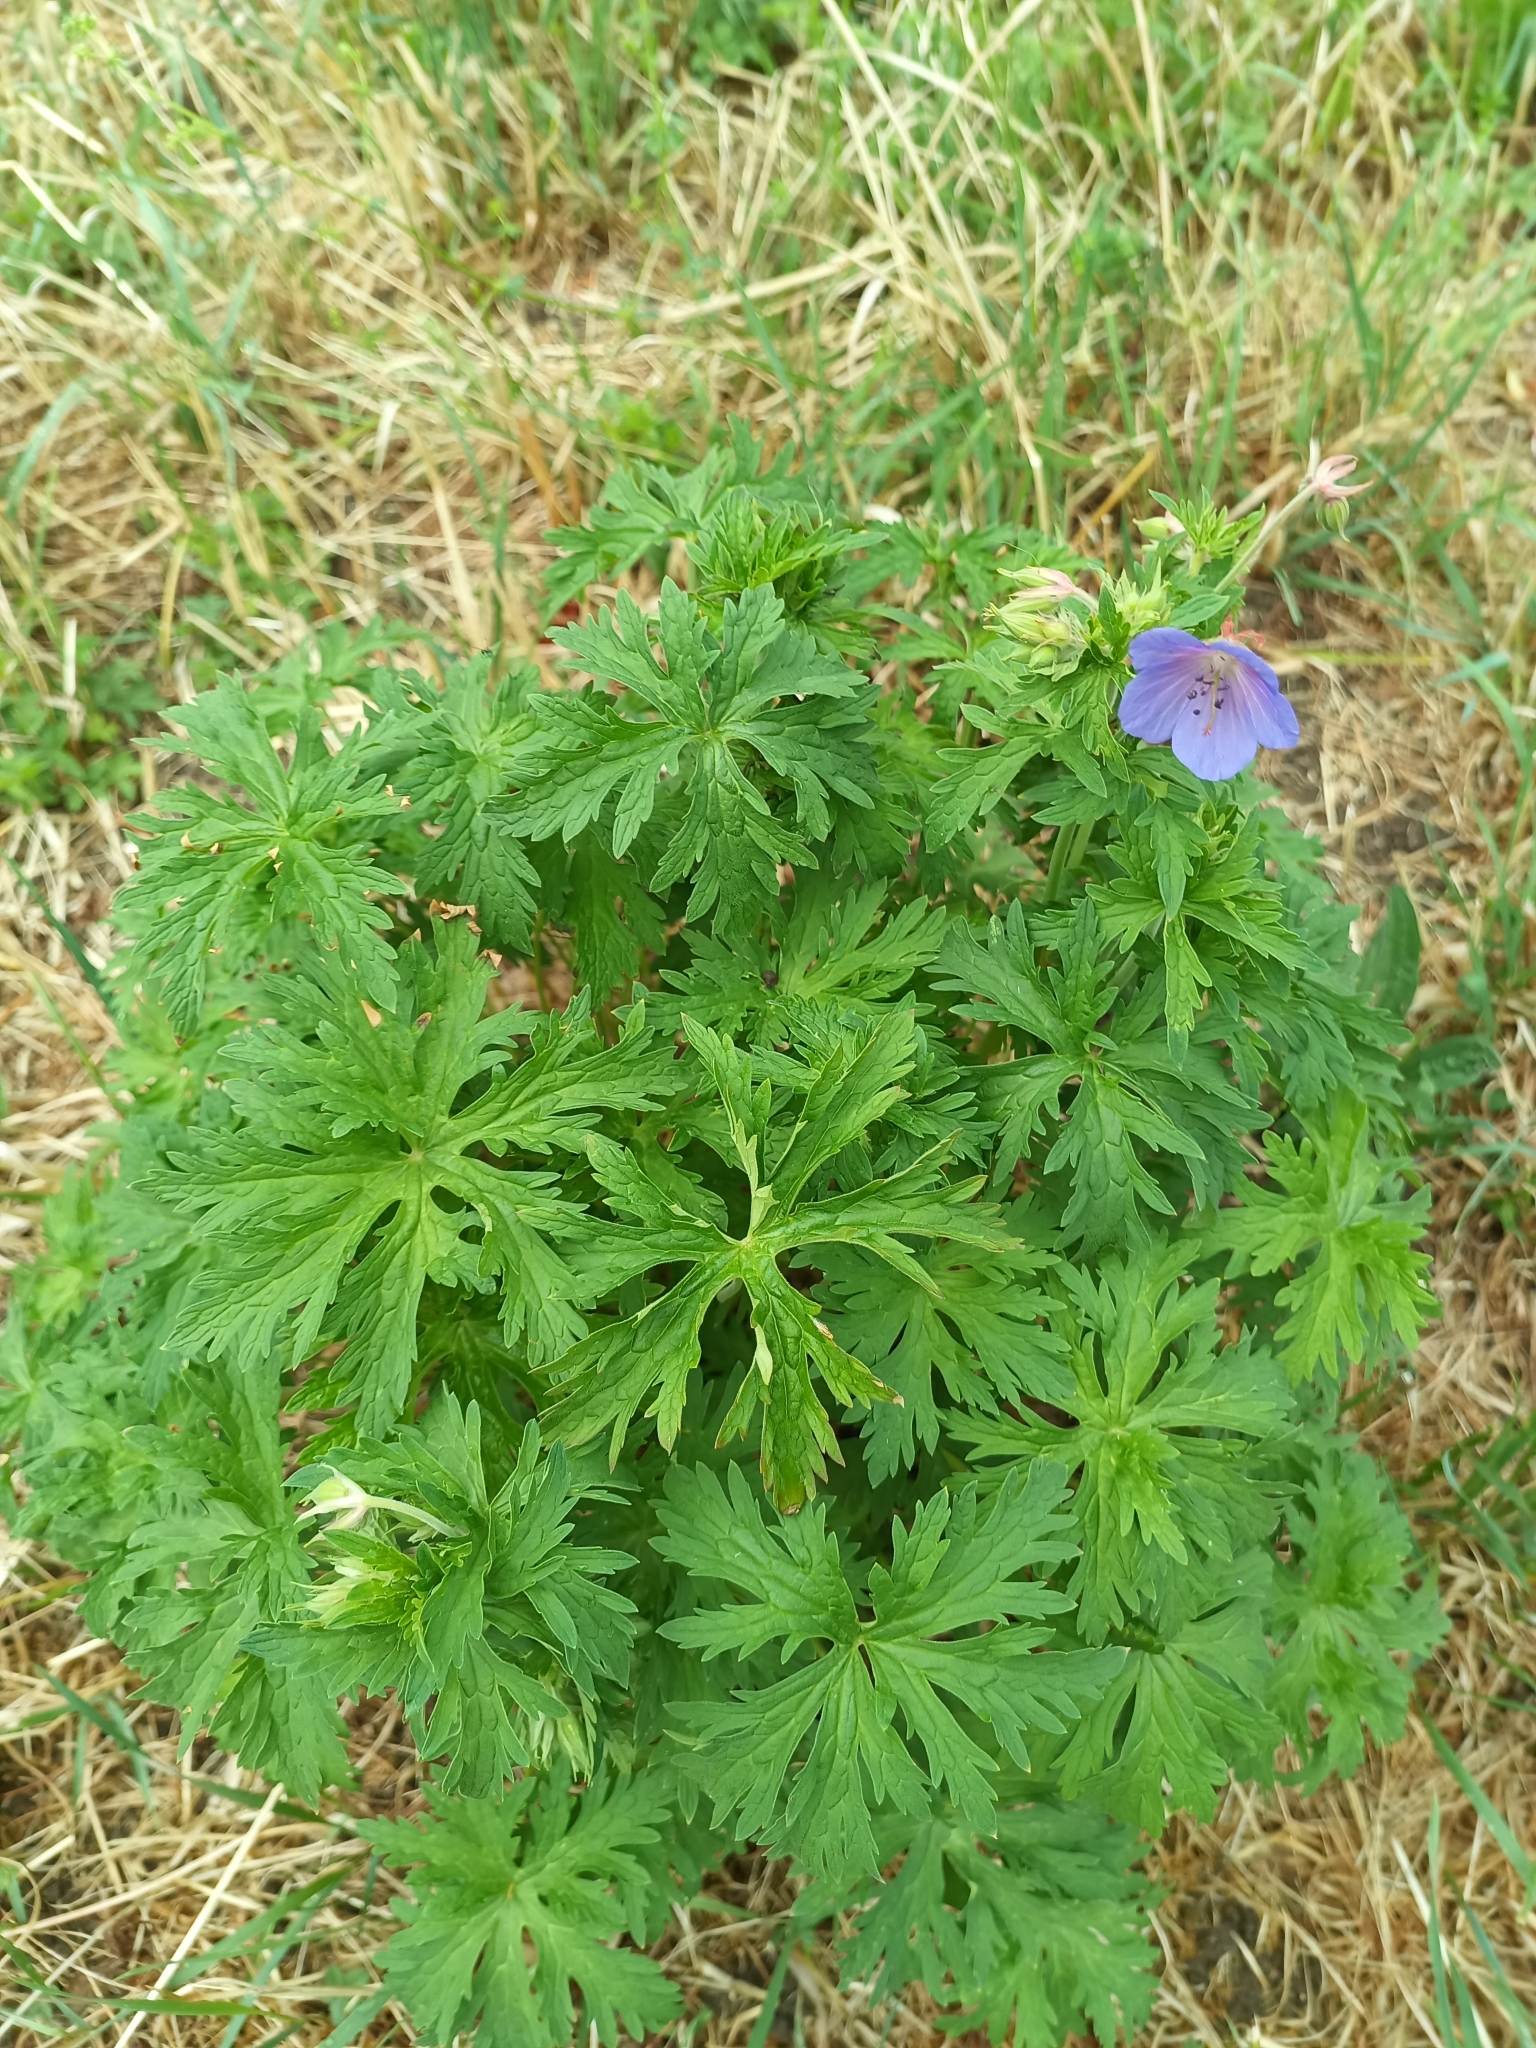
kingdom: Plantae
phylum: Tracheophyta
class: Magnoliopsida
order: Geraniales
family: Geraniaceae
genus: Geranium
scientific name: Geranium pratense
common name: Meadow crane's-bill
